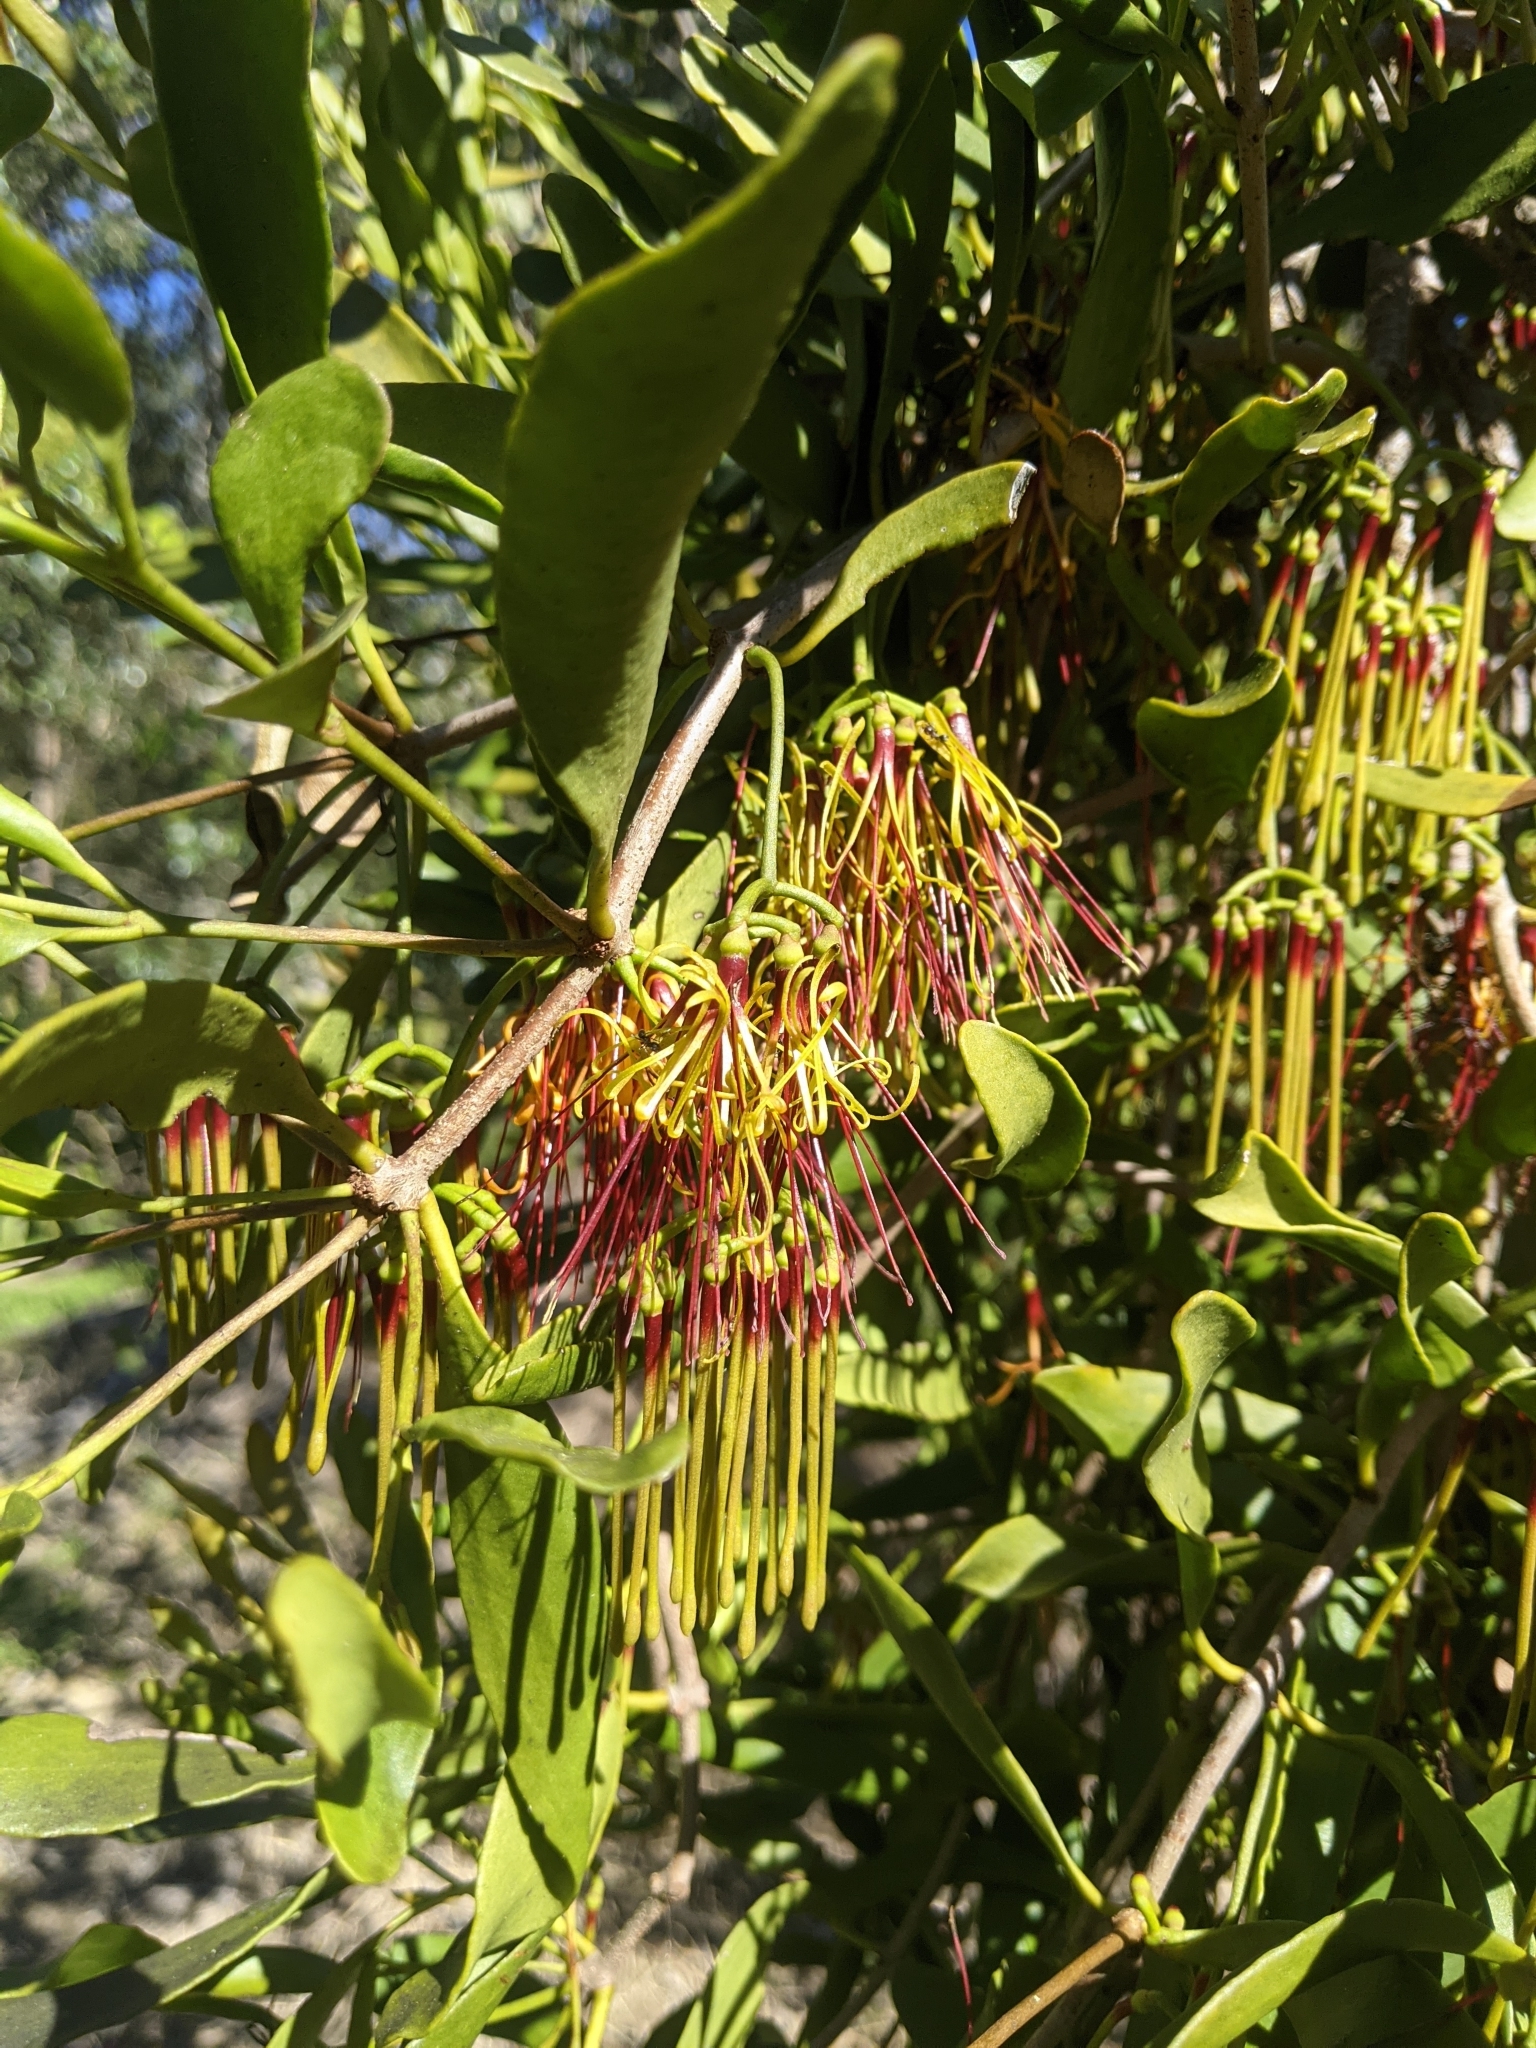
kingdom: Plantae
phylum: Tracheophyta
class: Magnoliopsida
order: Santalales
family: Loranthaceae
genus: Amyema
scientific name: Amyema congener
